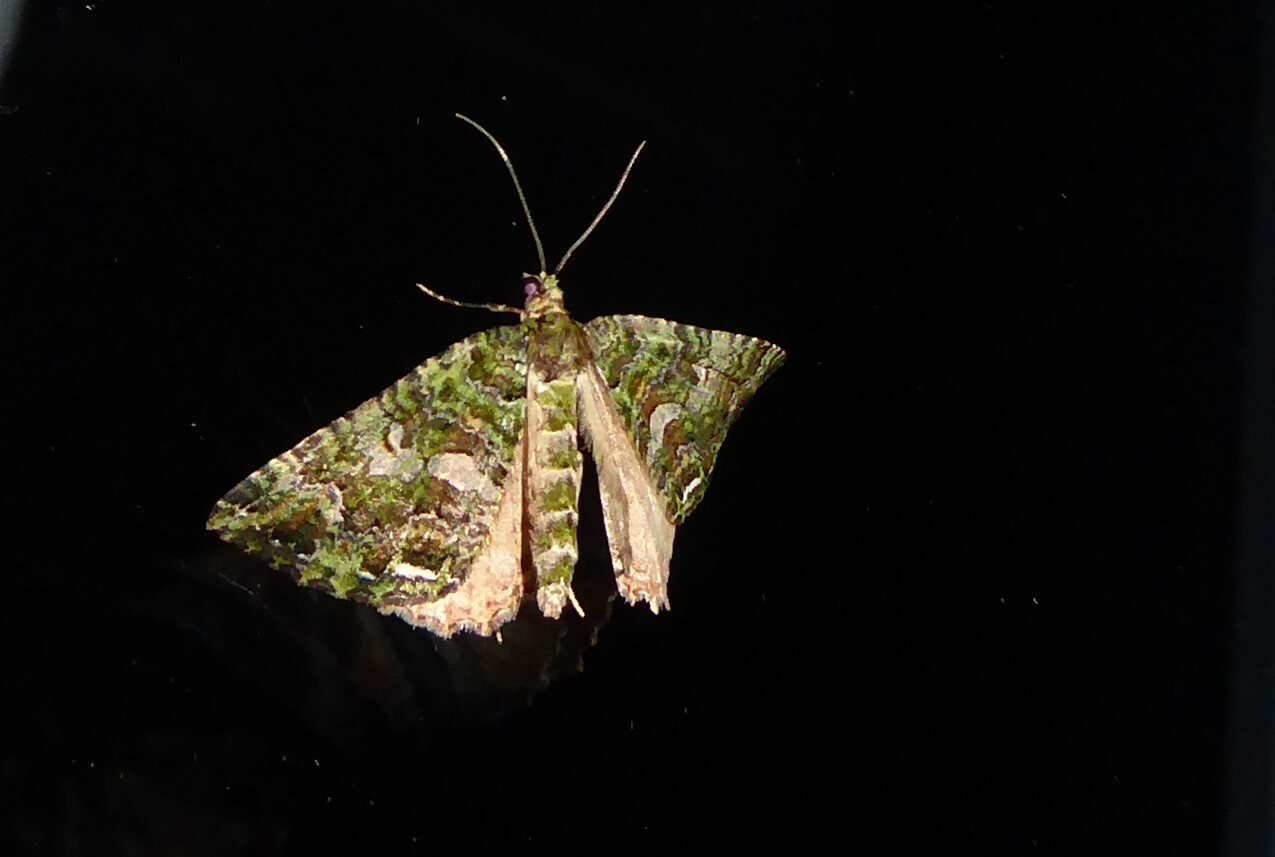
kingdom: Animalia
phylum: Arthropoda
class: Insecta
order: Lepidoptera
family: Geometridae
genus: Austrocidaria
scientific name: Austrocidaria similata
